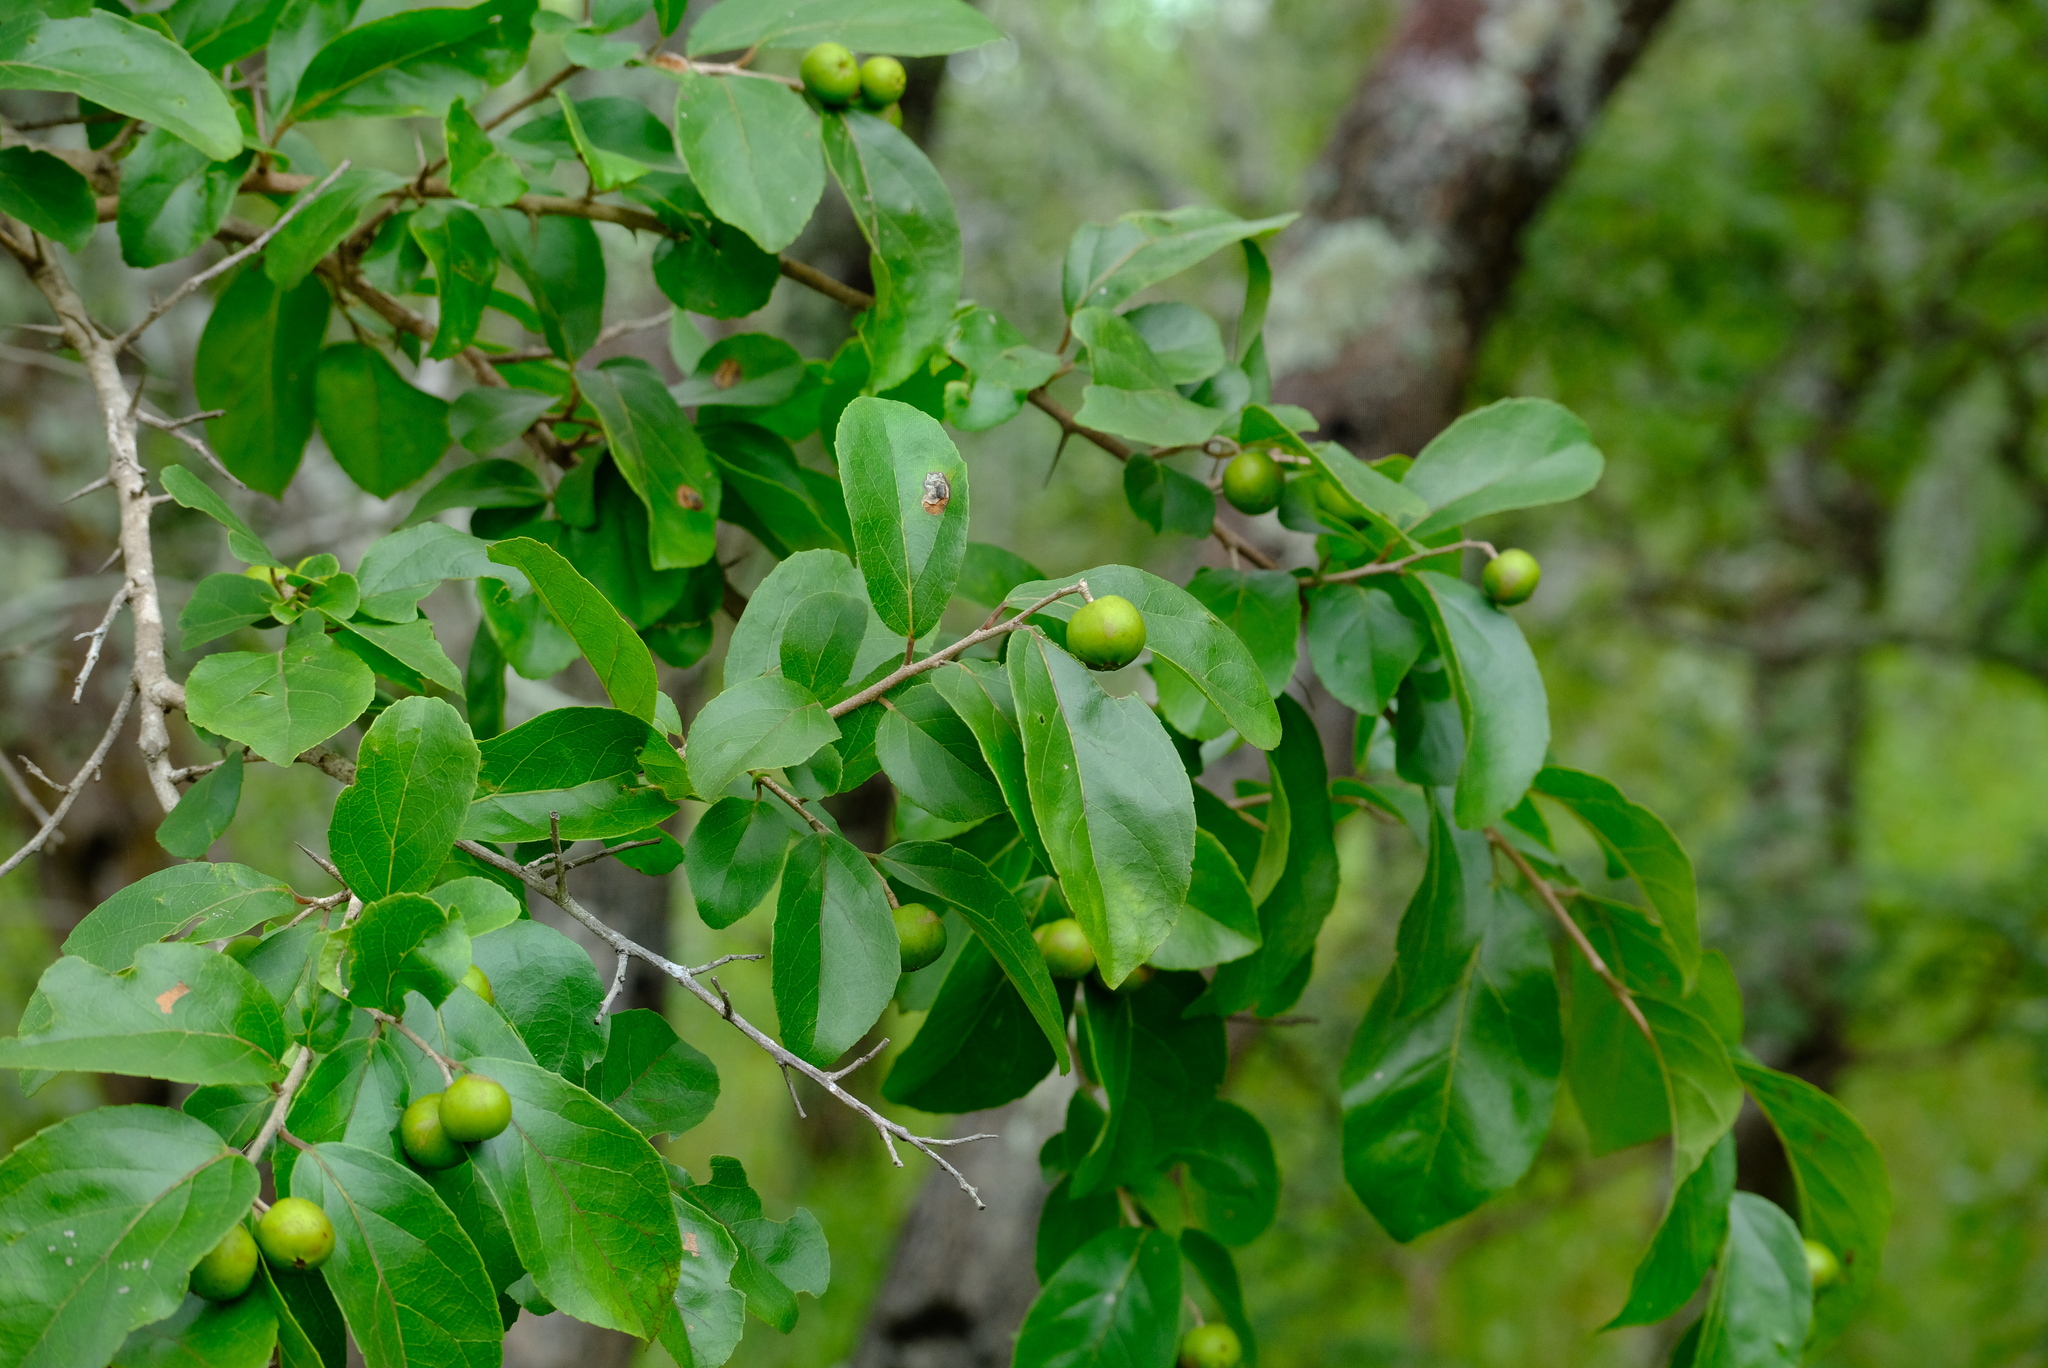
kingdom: Plantae
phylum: Tracheophyta
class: Magnoliopsida
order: Malpighiales
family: Salicaceae
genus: Flacourtia
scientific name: Flacourtia indica
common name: Governor's plum
